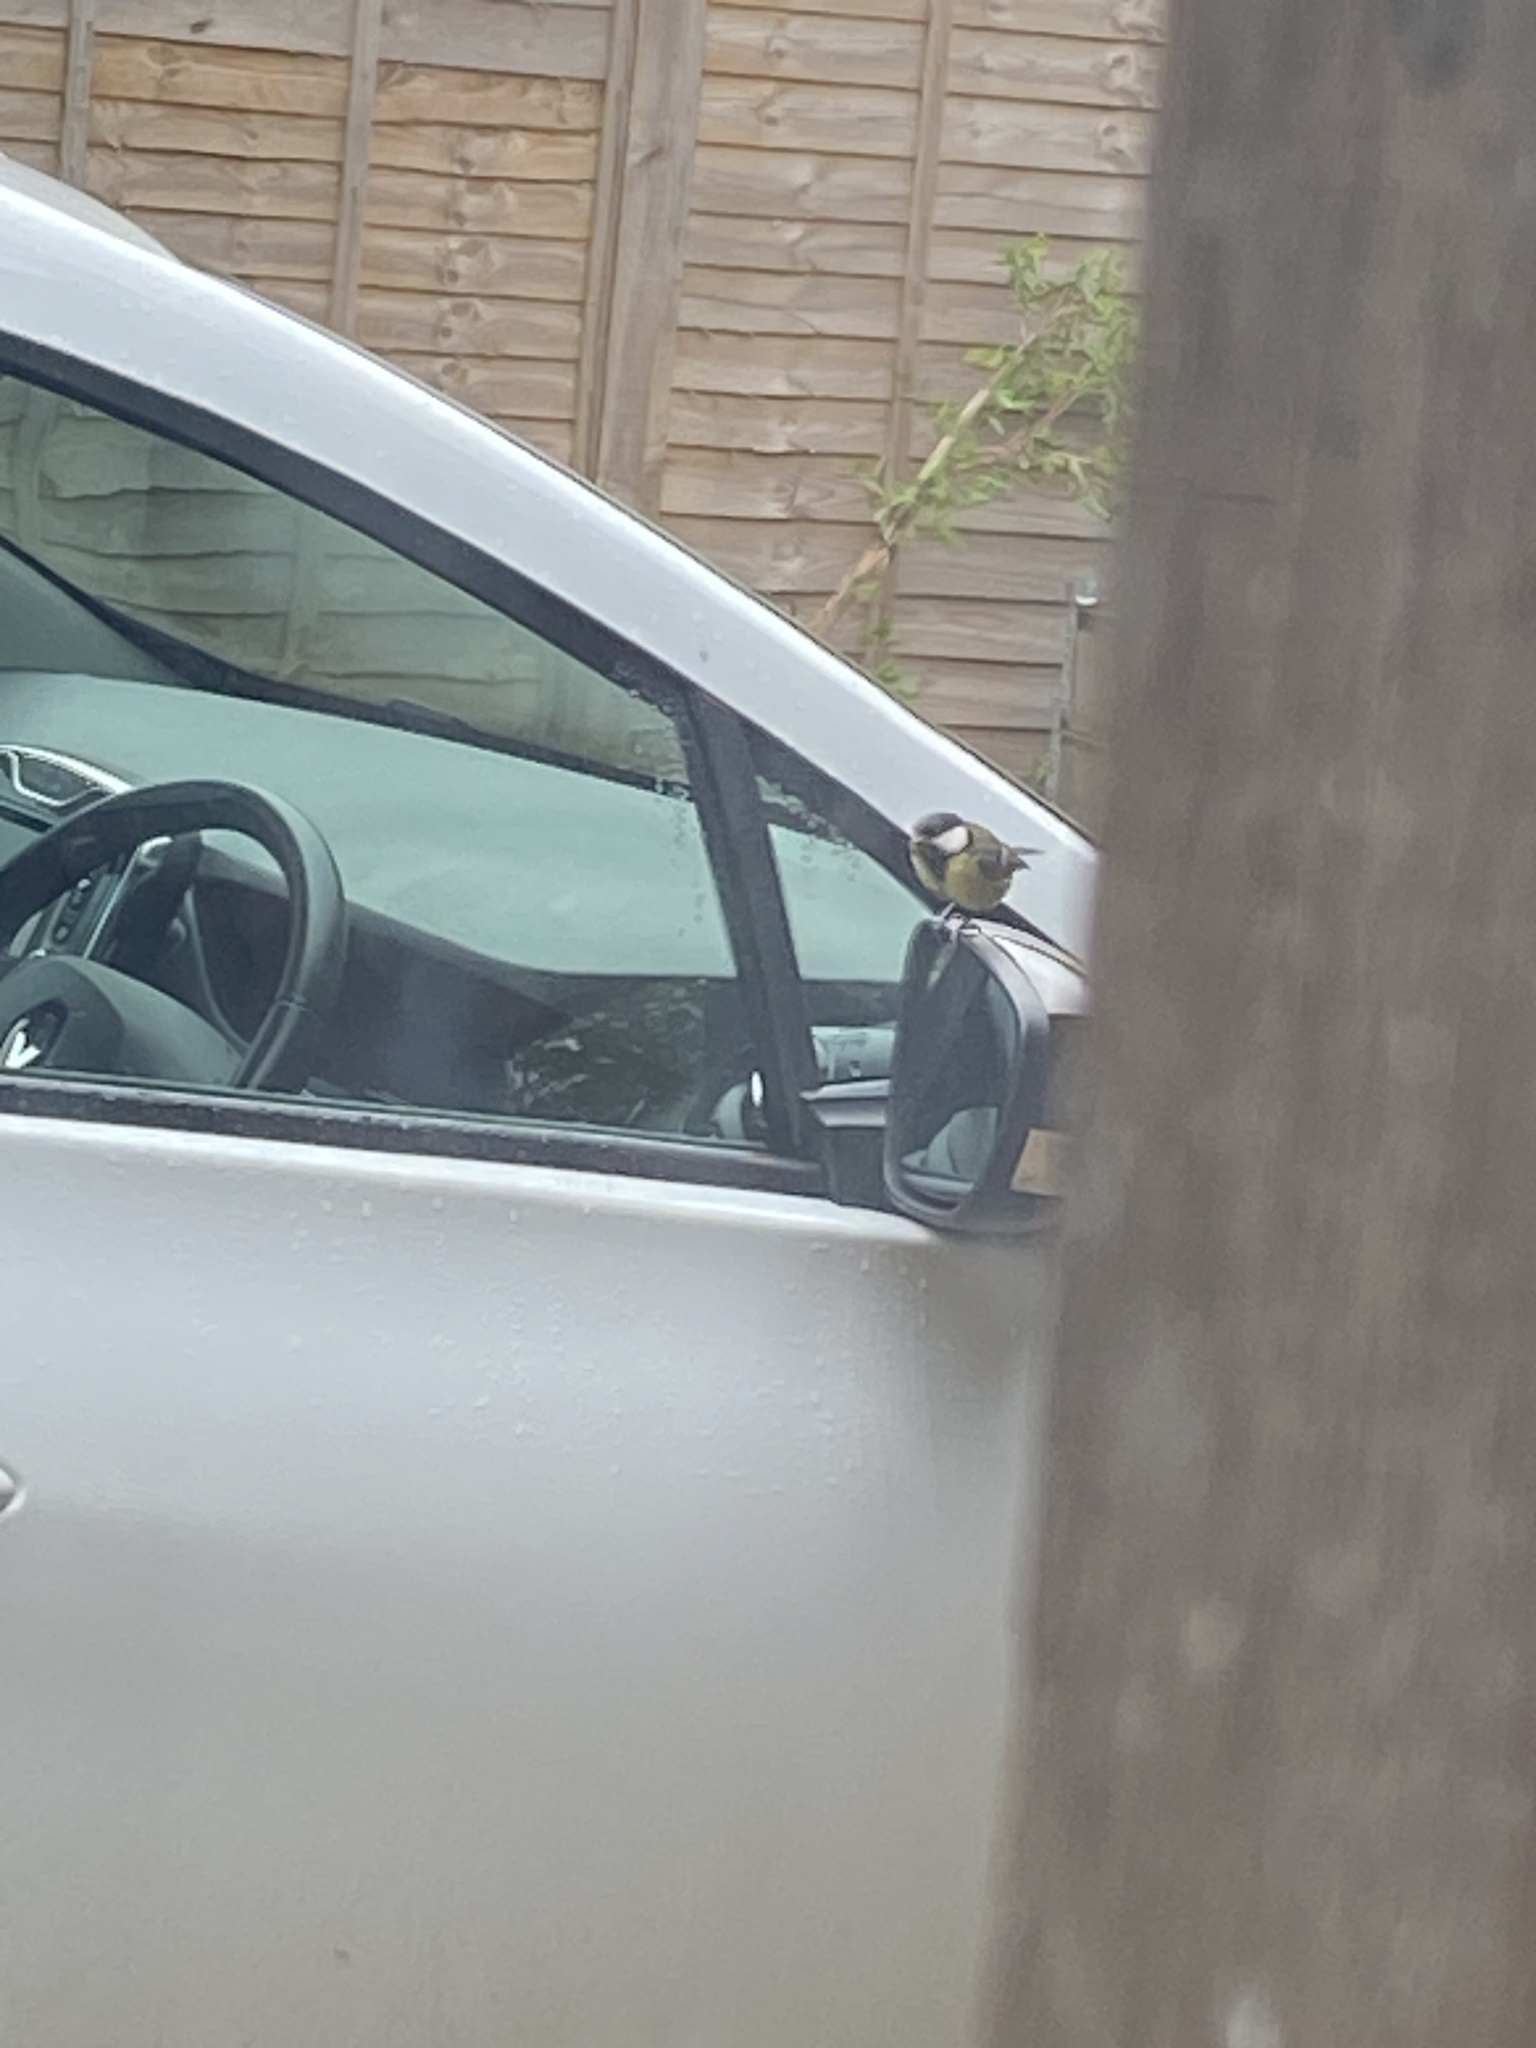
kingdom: Animalia
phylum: Chordata
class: Aves
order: Passeriformes
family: Paridae
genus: Parus
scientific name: Parus major
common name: Great tit
